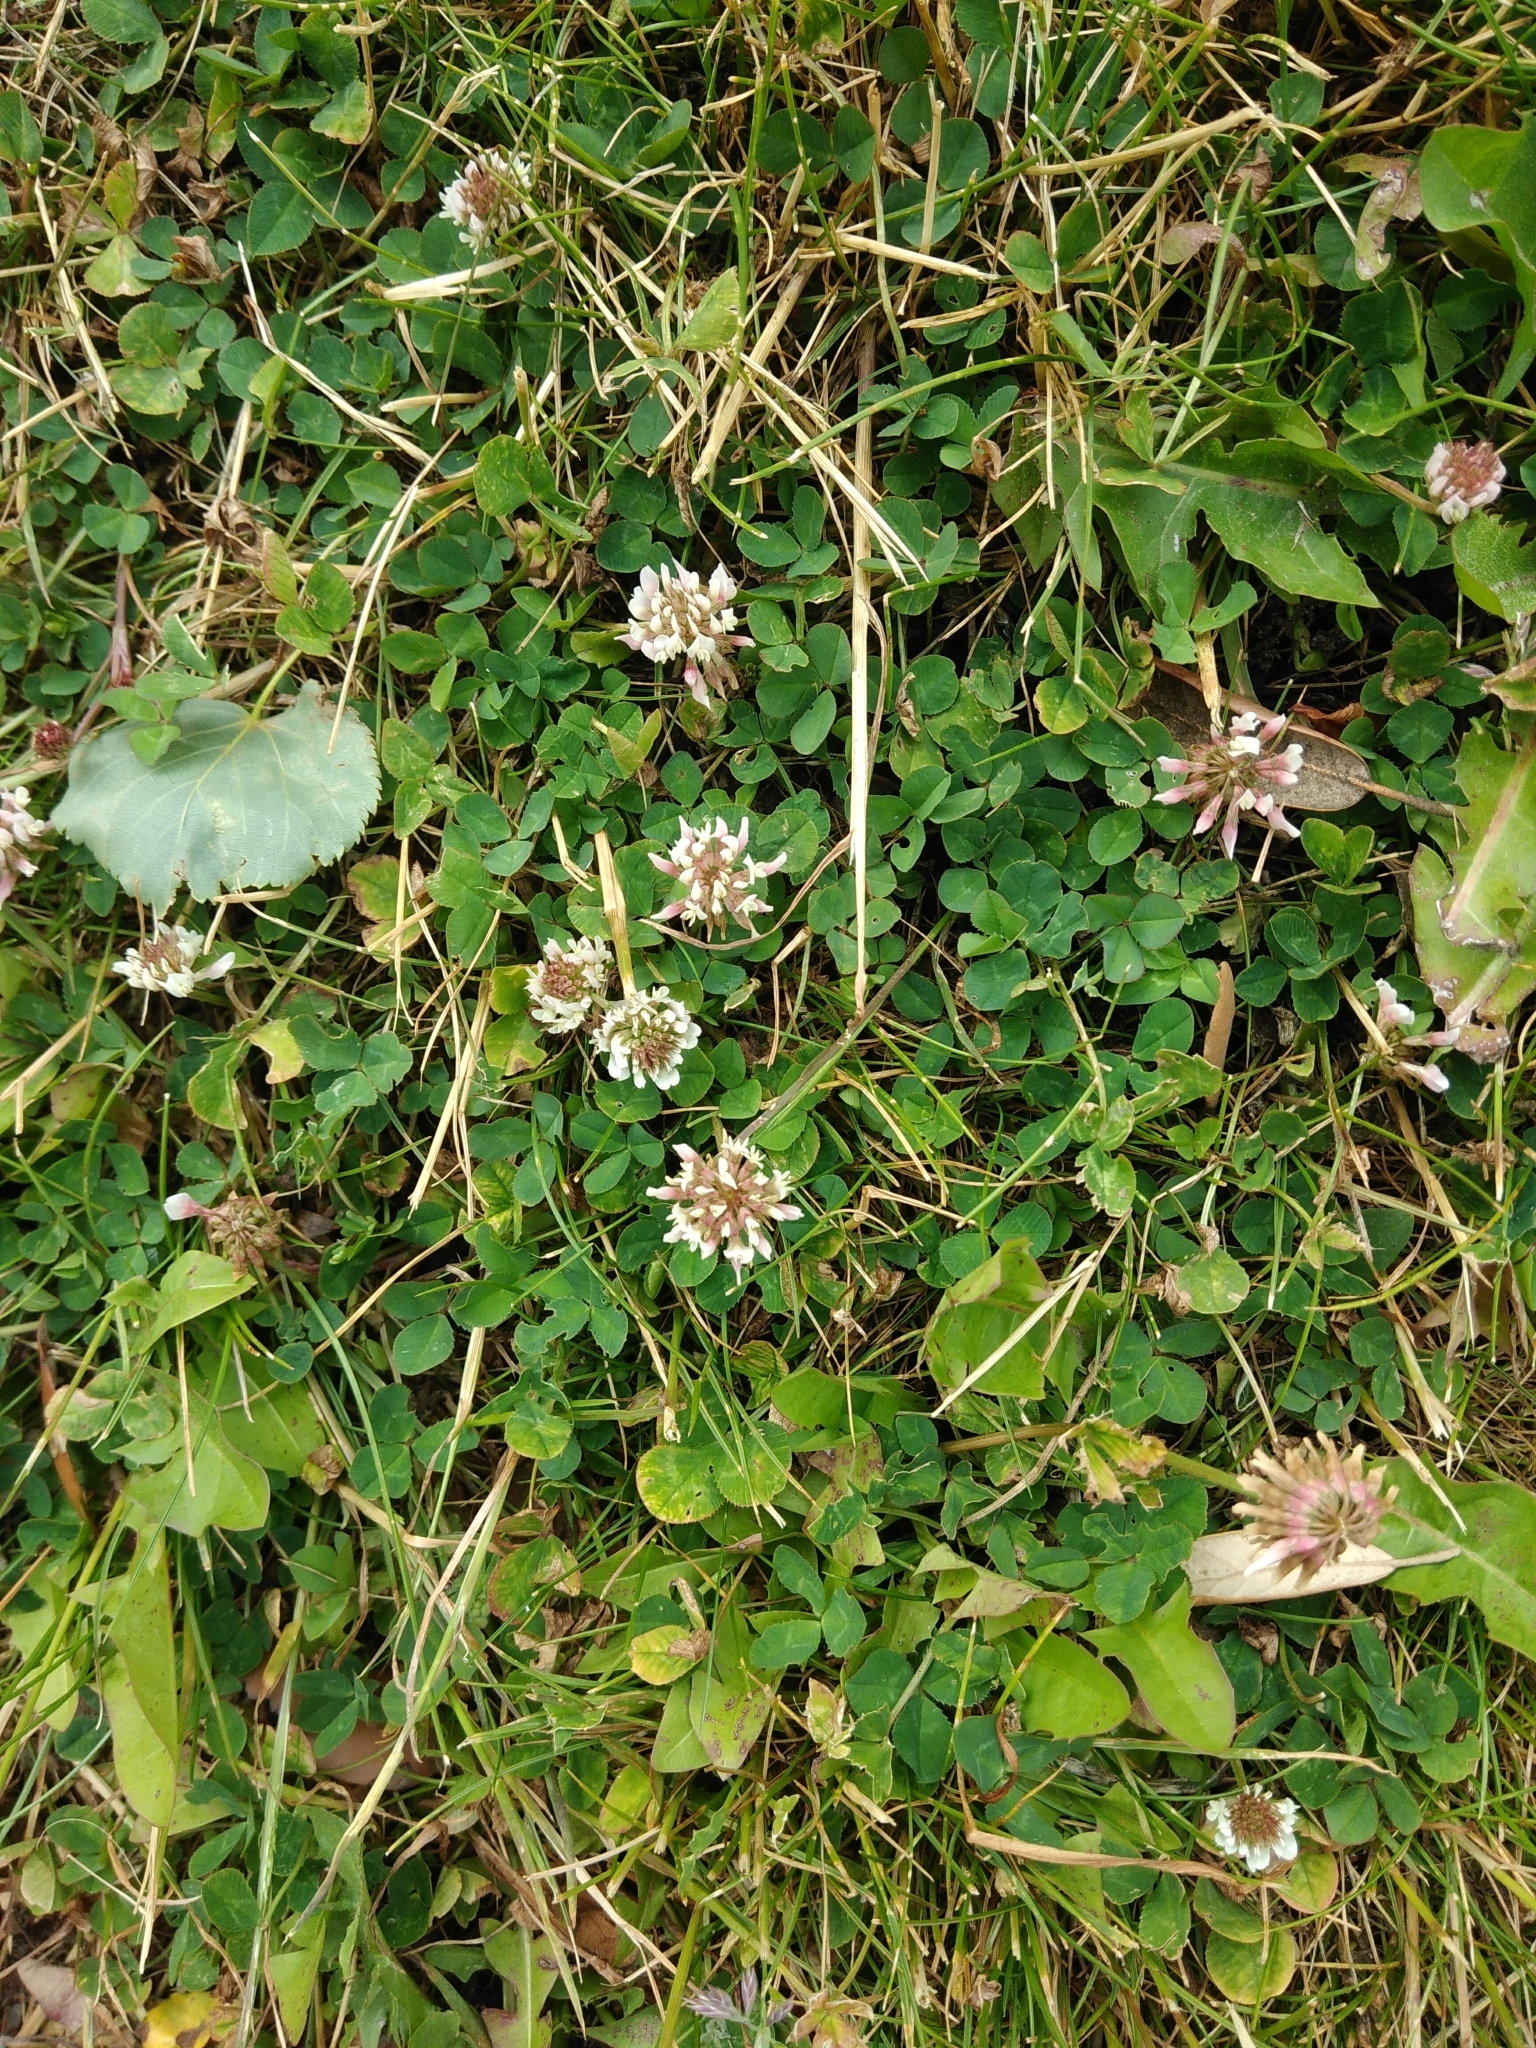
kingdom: Plantae
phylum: Tracheophyta
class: Magnoliopsida
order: Fabales
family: Fabaceae
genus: Trifolium
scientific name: Trifolium repens
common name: White clover
